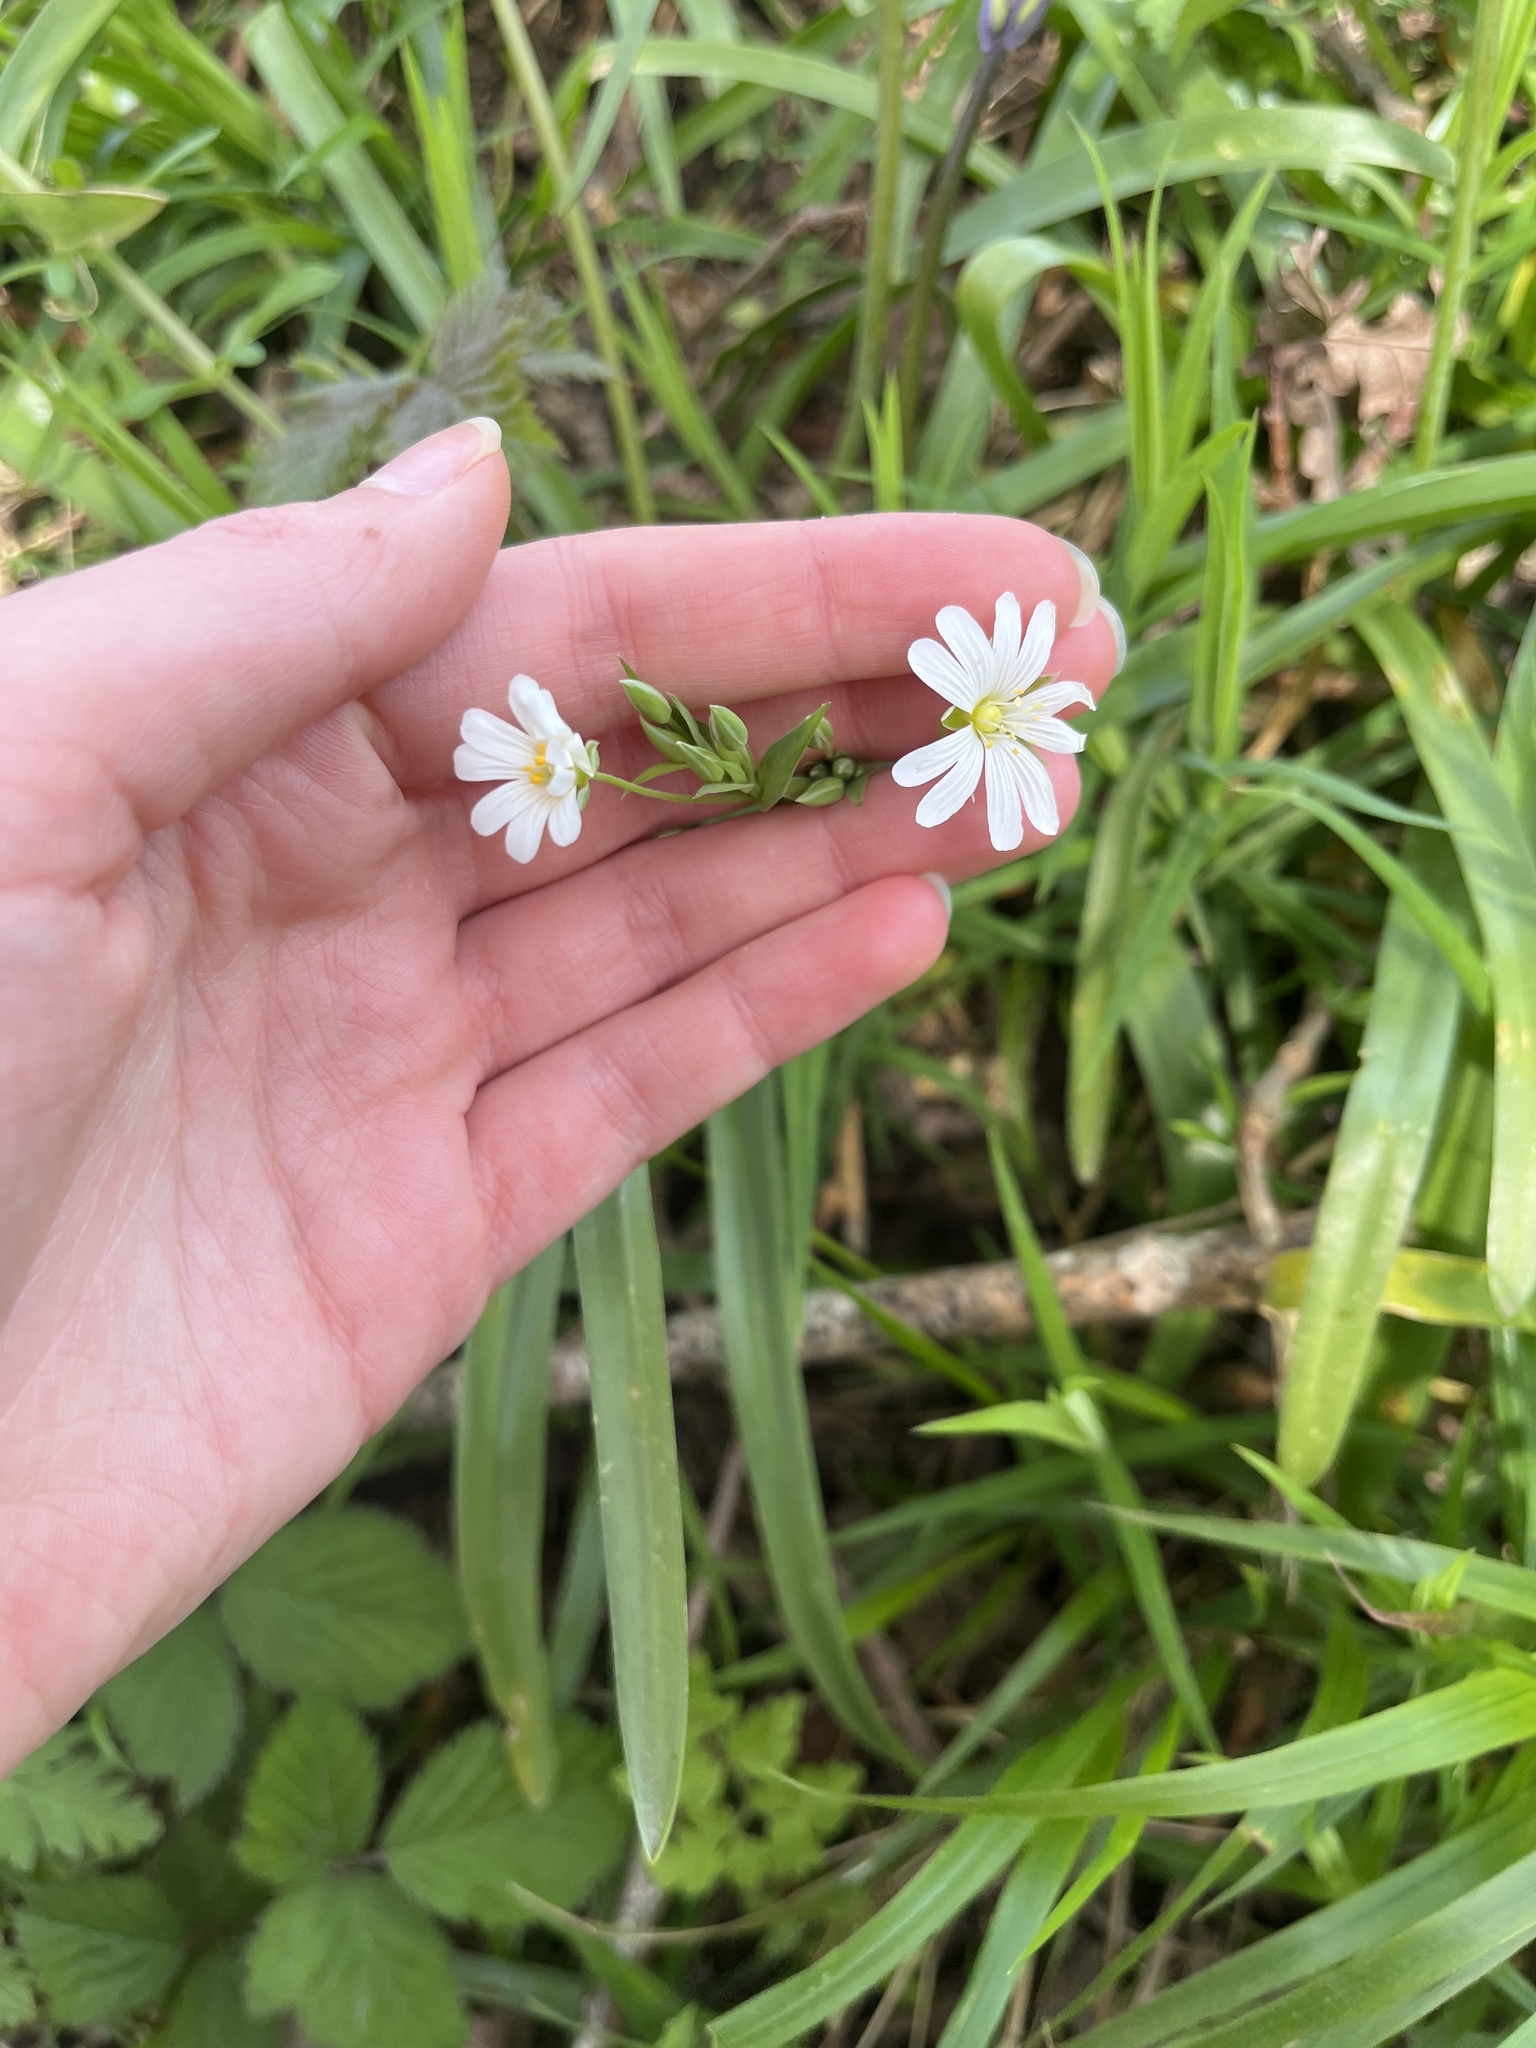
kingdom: Plantae
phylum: Tracheophyta
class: Magnoliopsida
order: Caryophyllales
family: Caryophyllaceae
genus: Rabelera
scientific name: Rabelera holostea
